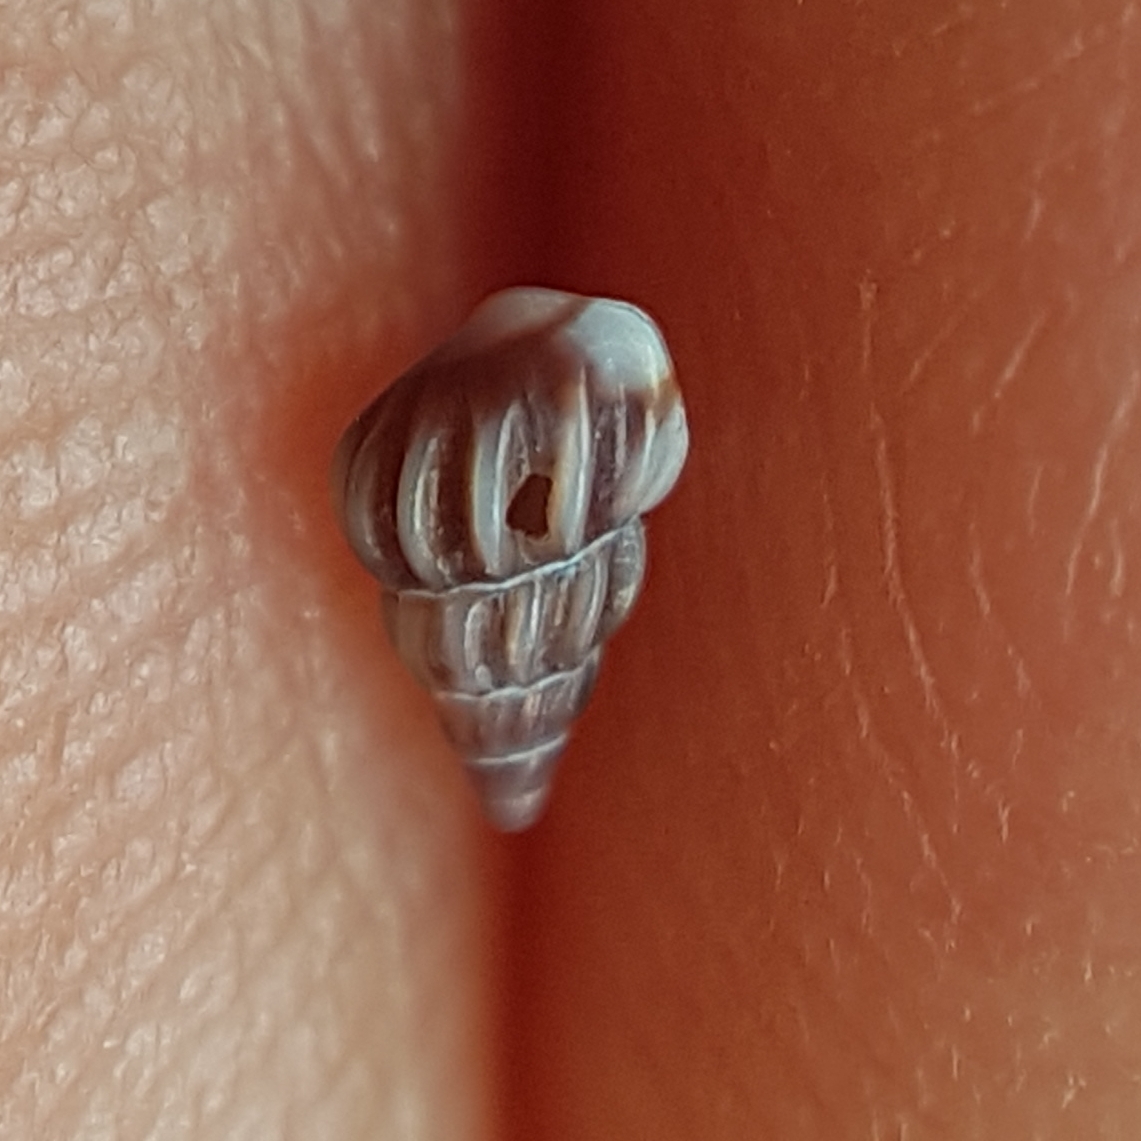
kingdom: Animalia
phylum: Mollusca
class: Gastropoda
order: Littorinimorpha
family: Rissoidae
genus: Rissoa
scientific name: Rissoa parva
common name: Tiny risso snail
